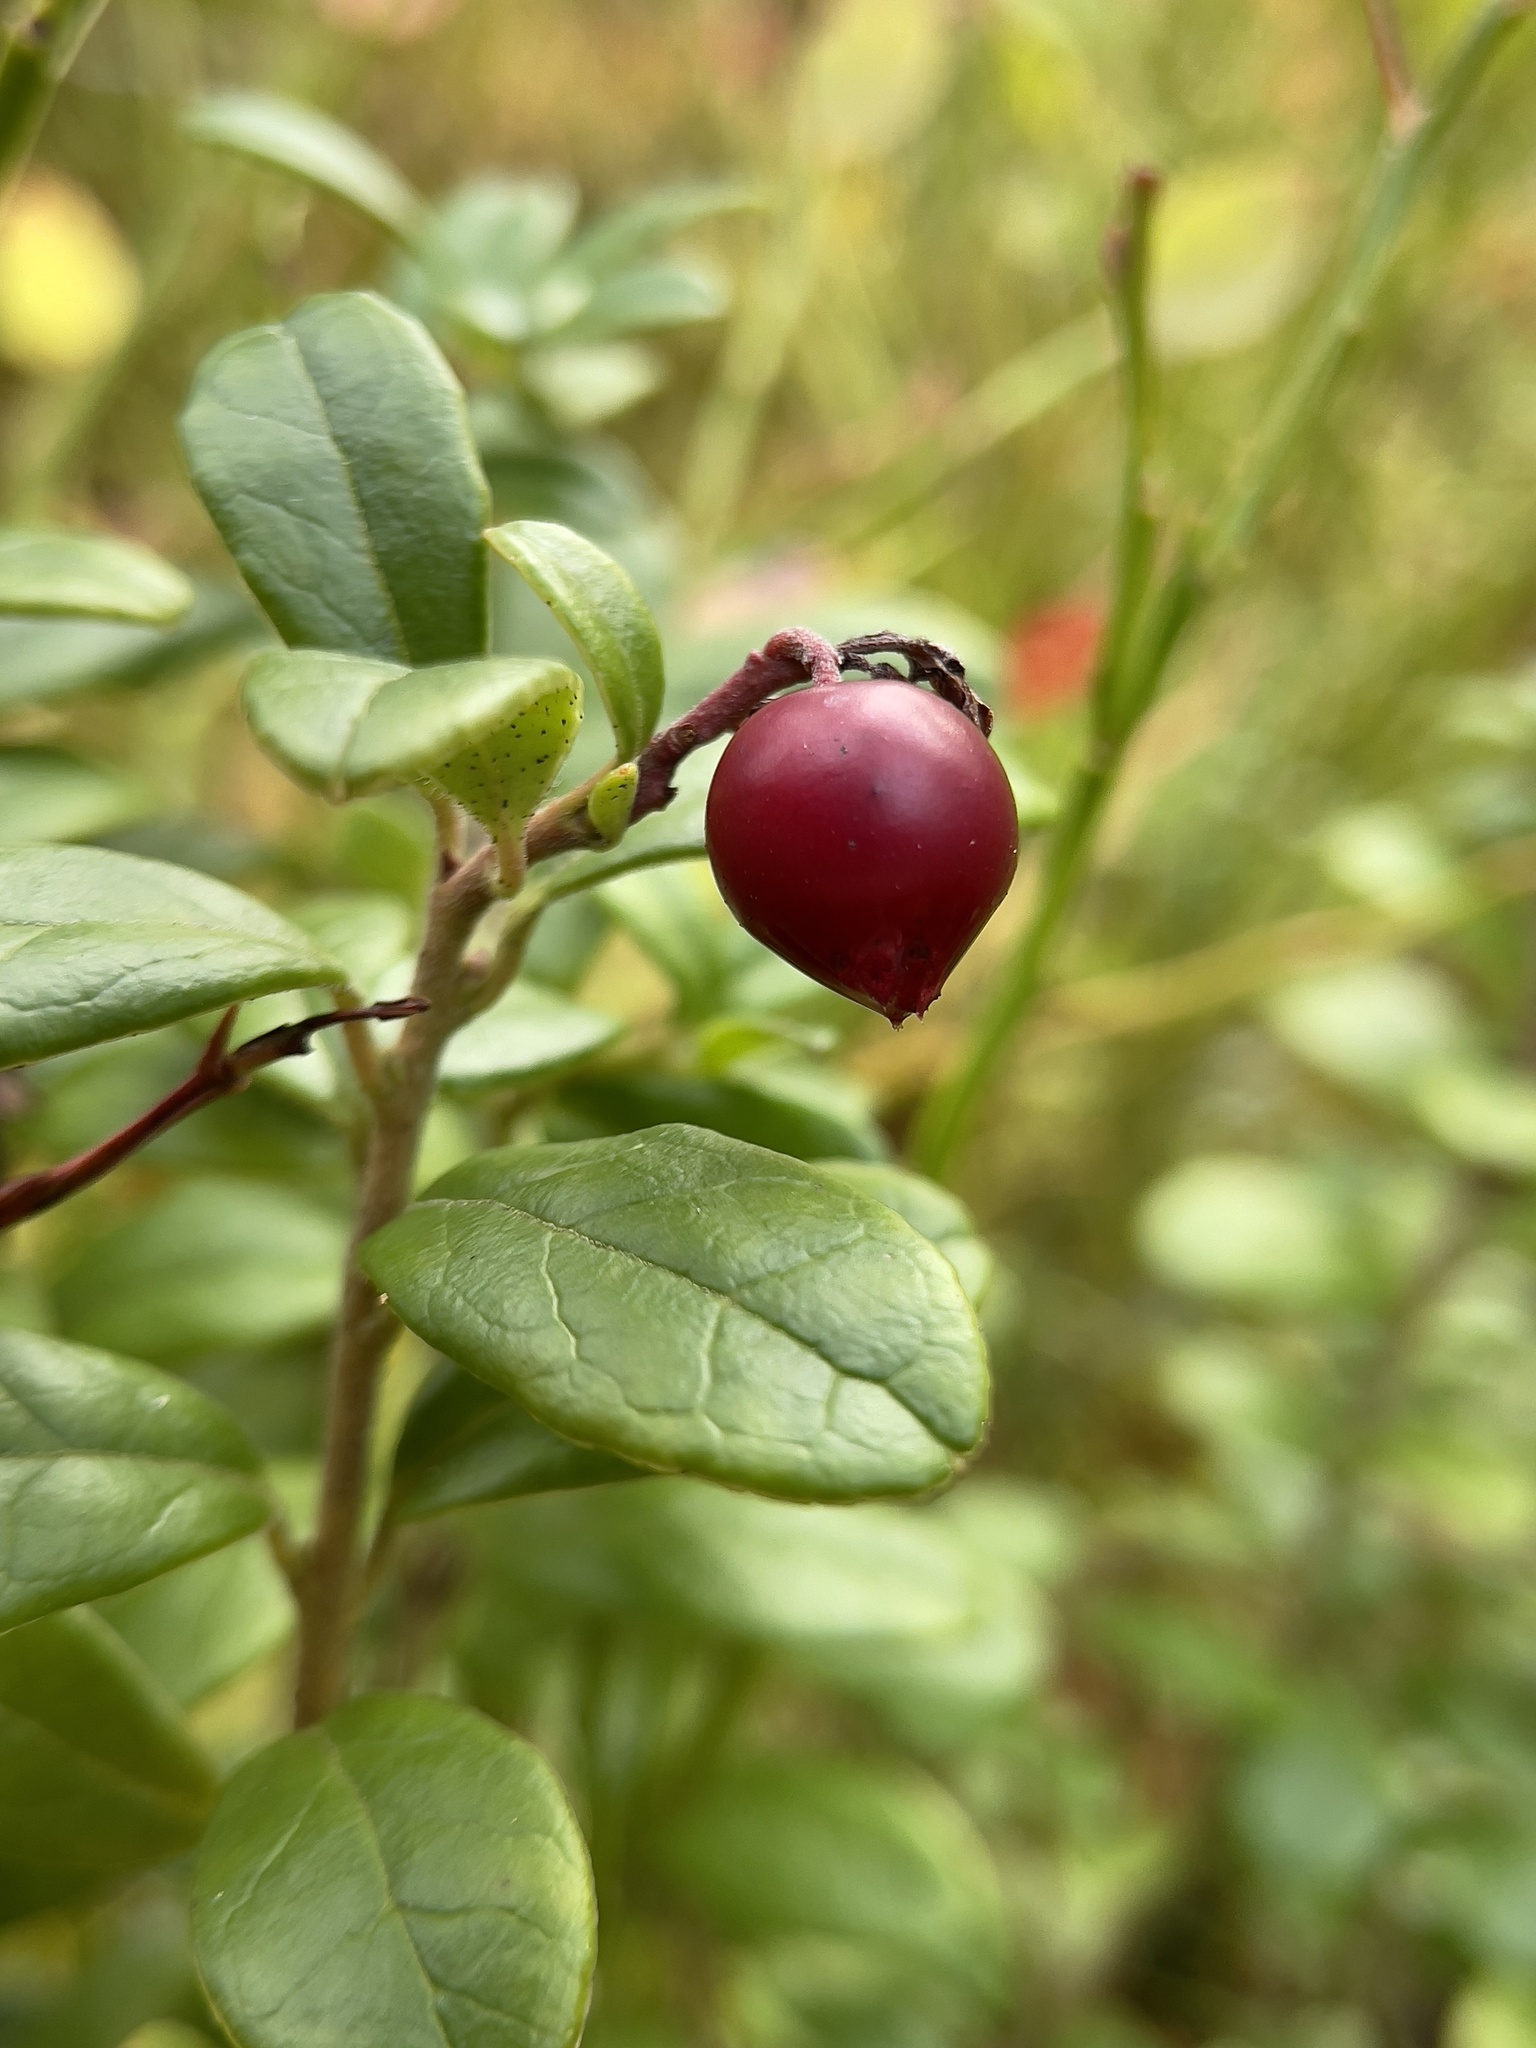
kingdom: Plantae
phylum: Tracheophyta
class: Magnoliopsida
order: Ericales
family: Ericaceae
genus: Vaccinium
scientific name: Vaccinium vitis-idaea
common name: Cowberry
